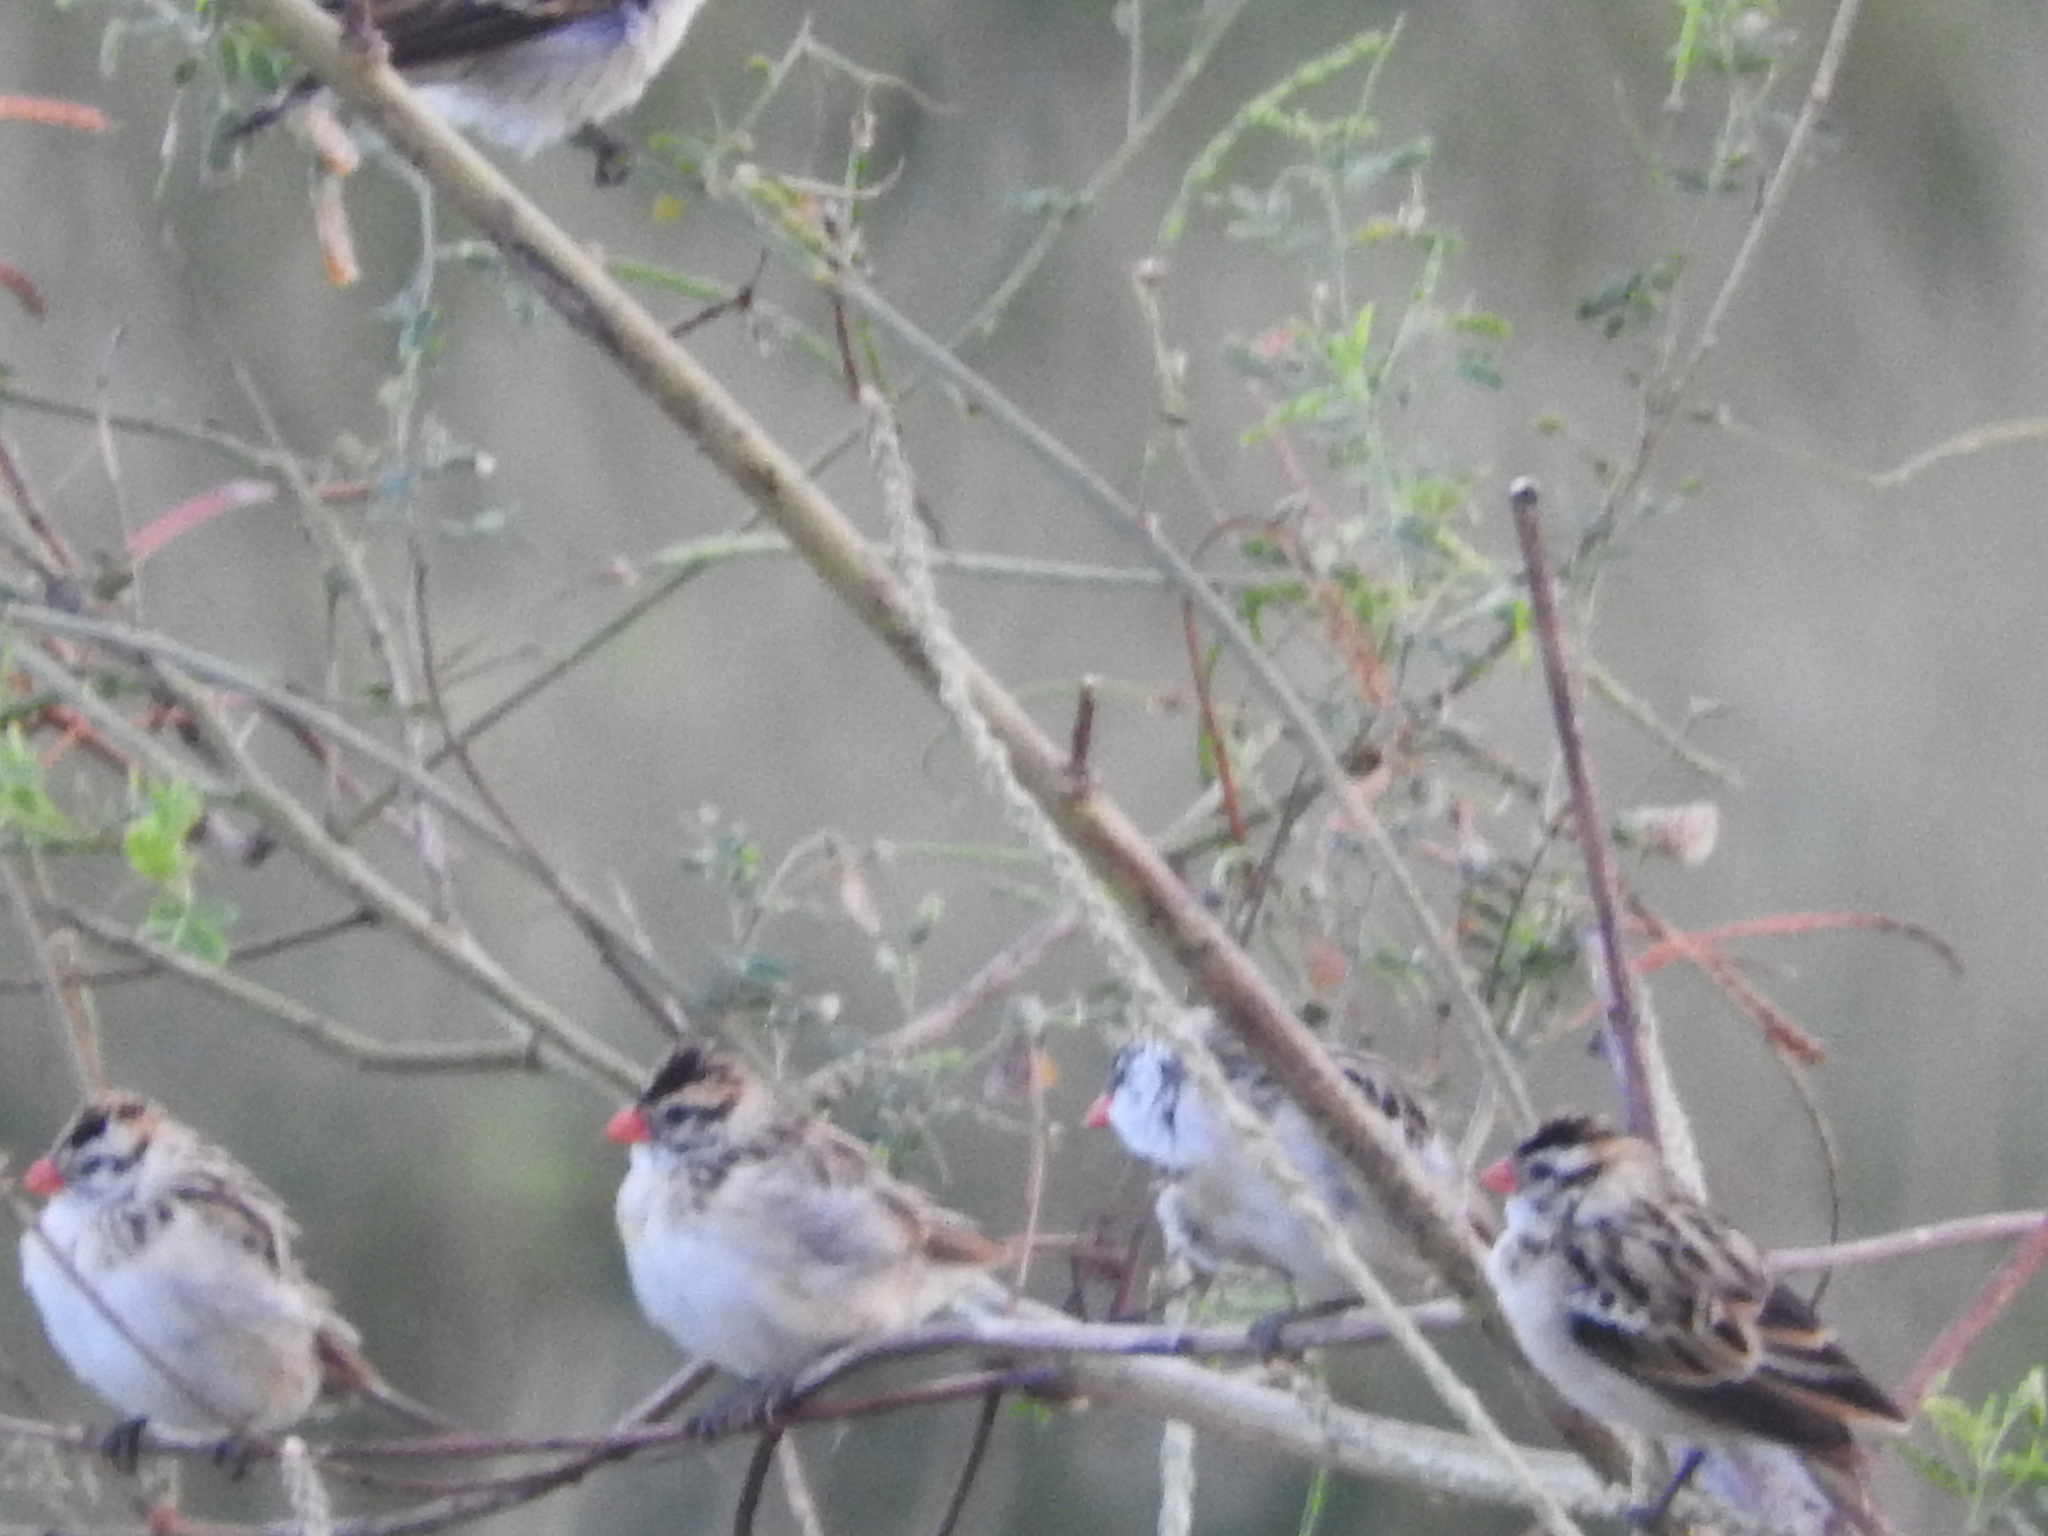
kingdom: Animalia
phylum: Chordata
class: Aves
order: Passeriformes
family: Viduidae
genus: Vidua
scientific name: Vidua macroura
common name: Pin-tailed whydah
